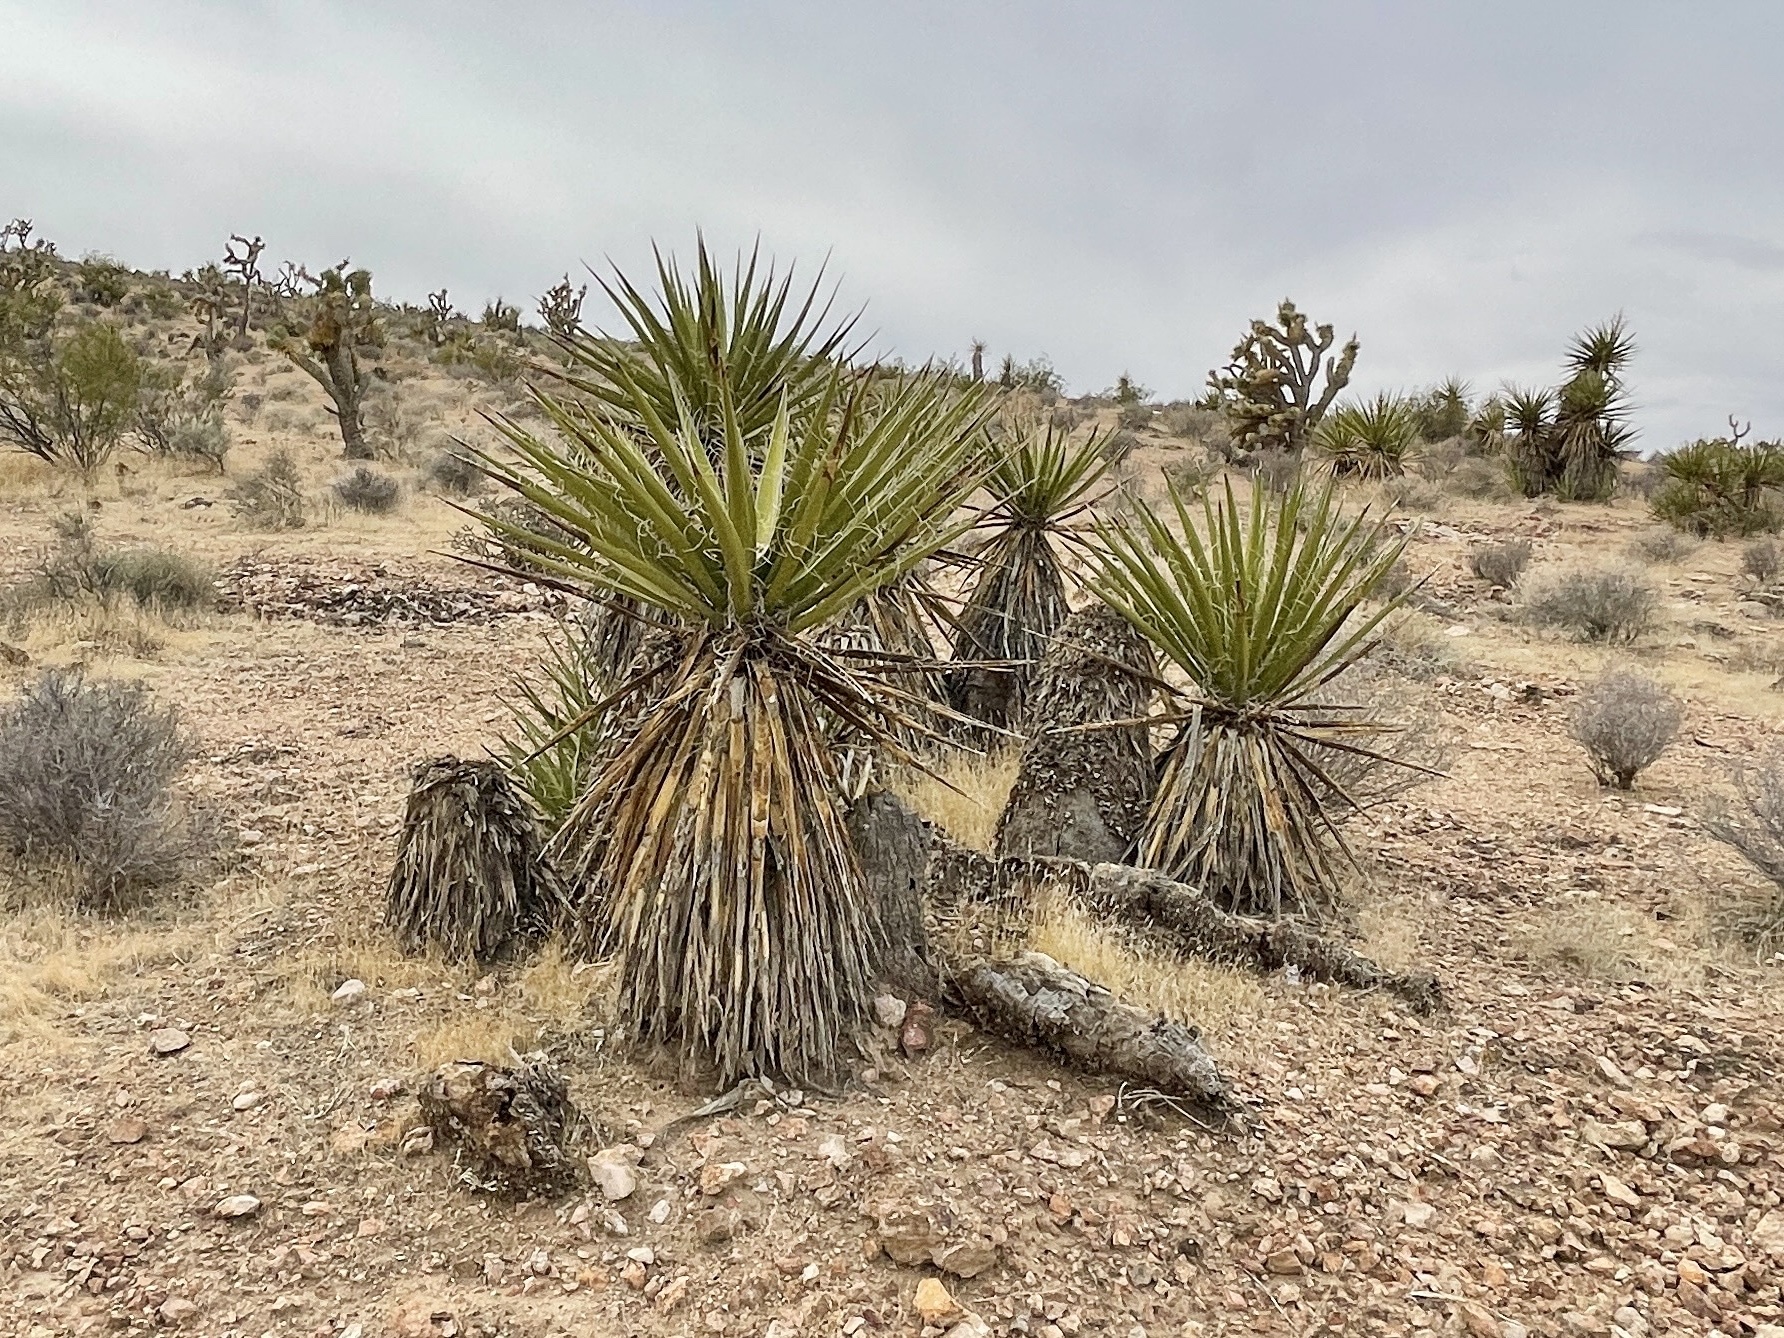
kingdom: Plantae
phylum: Tracheophyta
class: Liliopsida
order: Asparagales
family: Asparagaceae
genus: Yucca
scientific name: Yucca schidigera
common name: Mojave yucca
